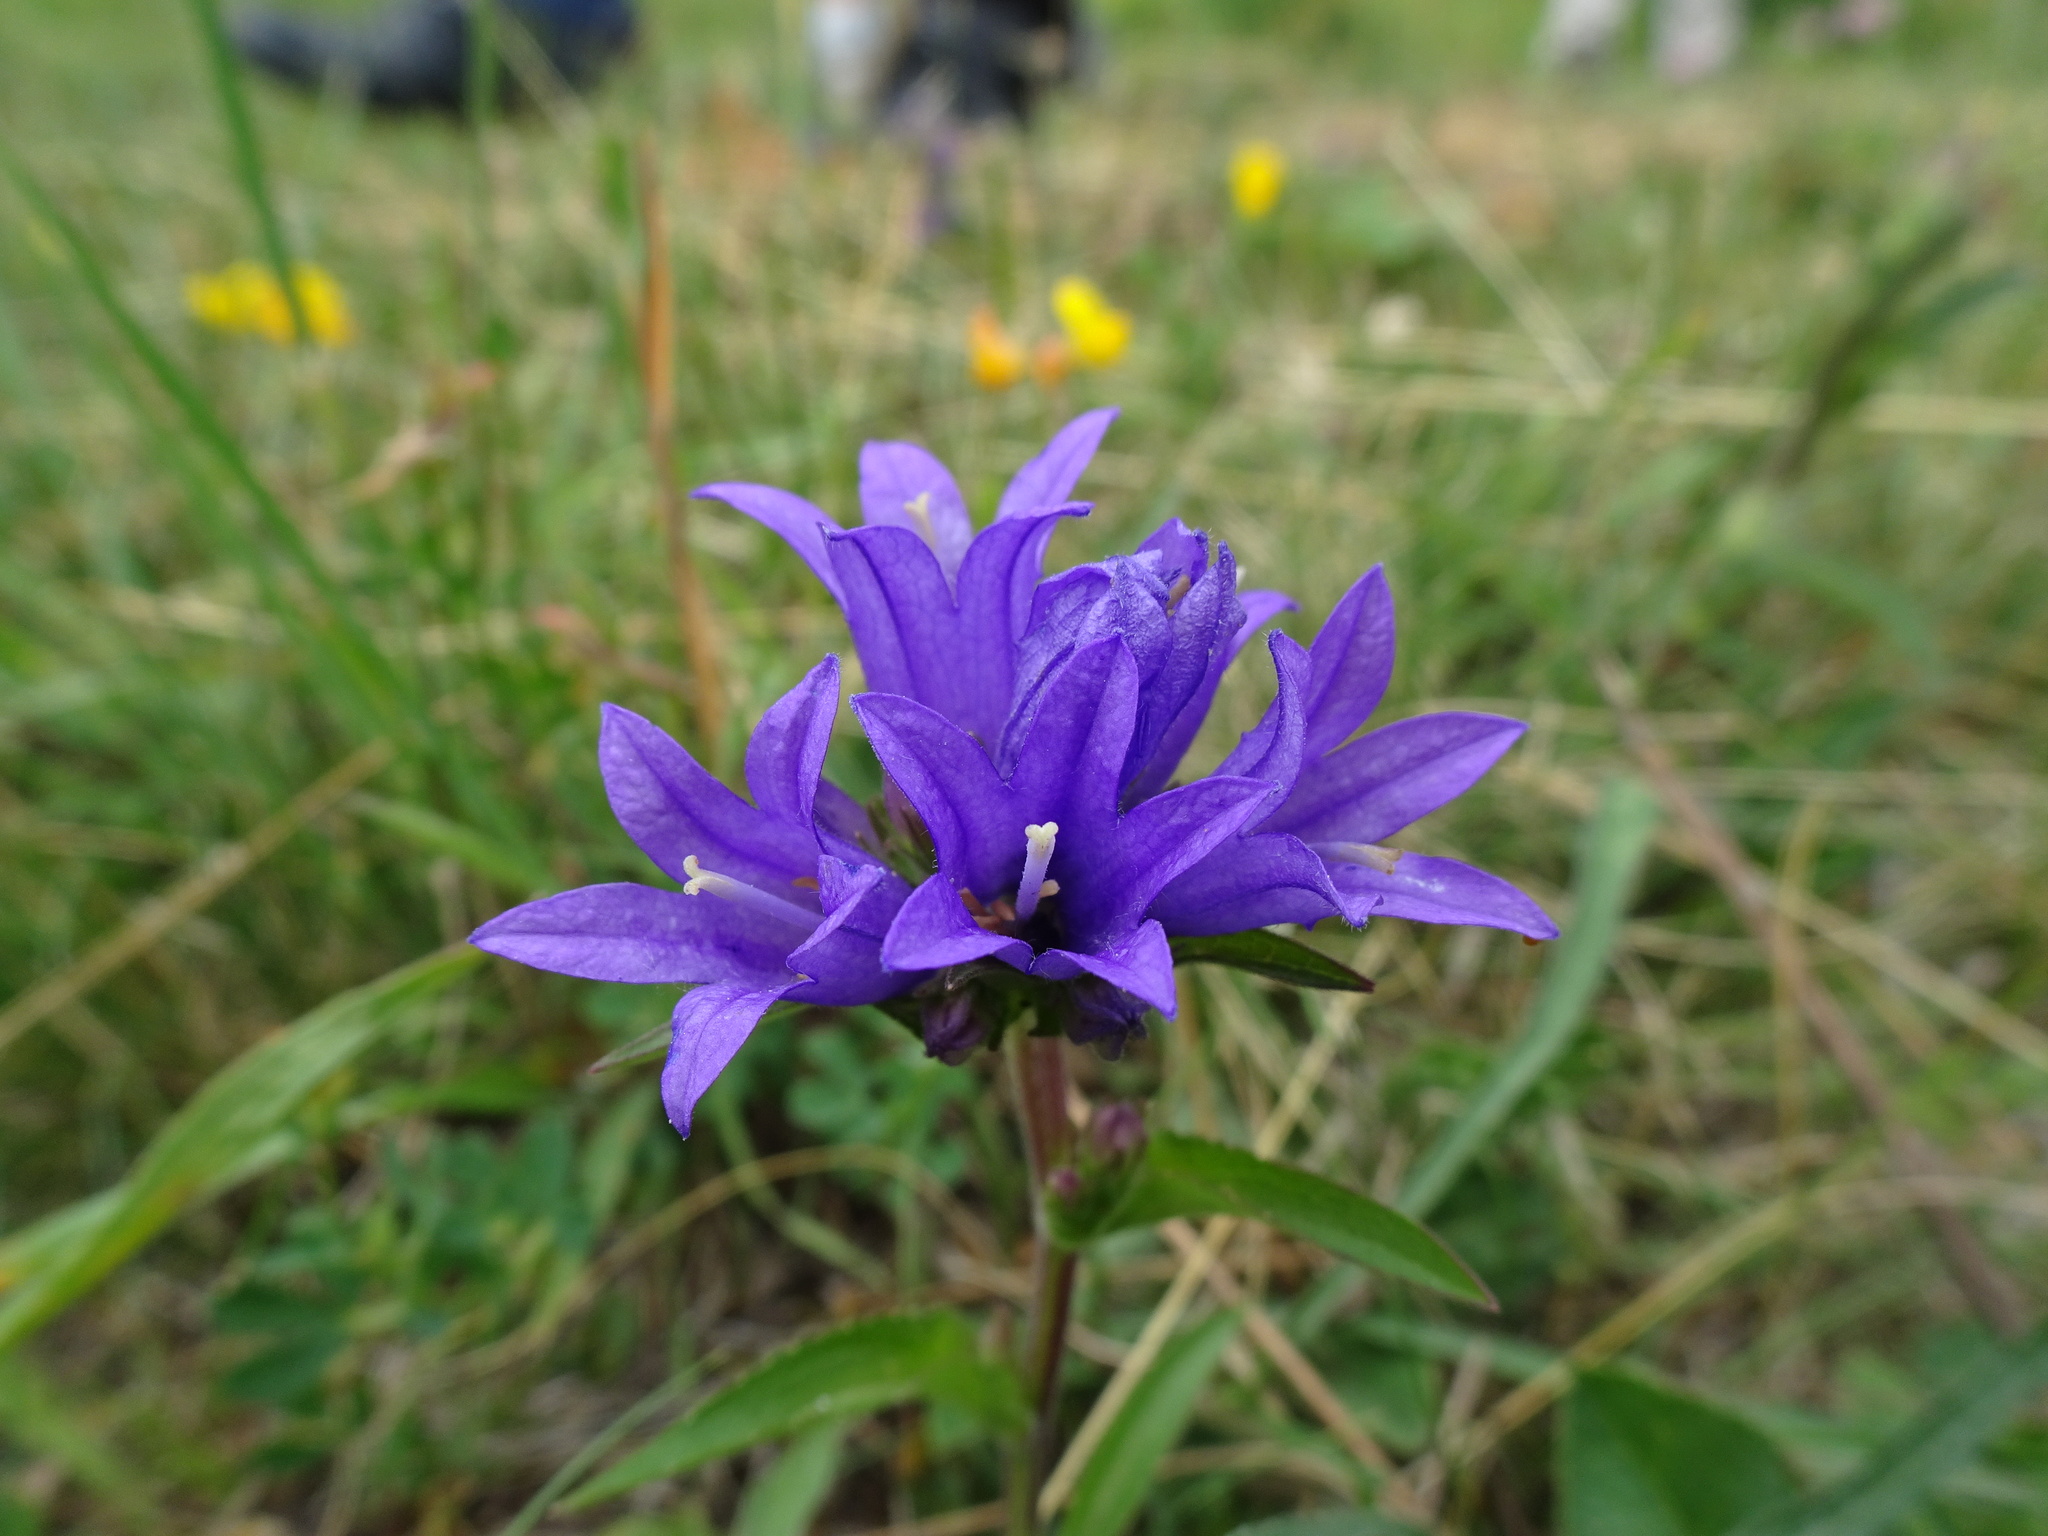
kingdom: Plantae
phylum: Tracheophyta
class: Magnoliopsida
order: Asterales
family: Campanulaceae
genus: Campanula
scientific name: Campanula glomerata
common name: Clustered bellflower
